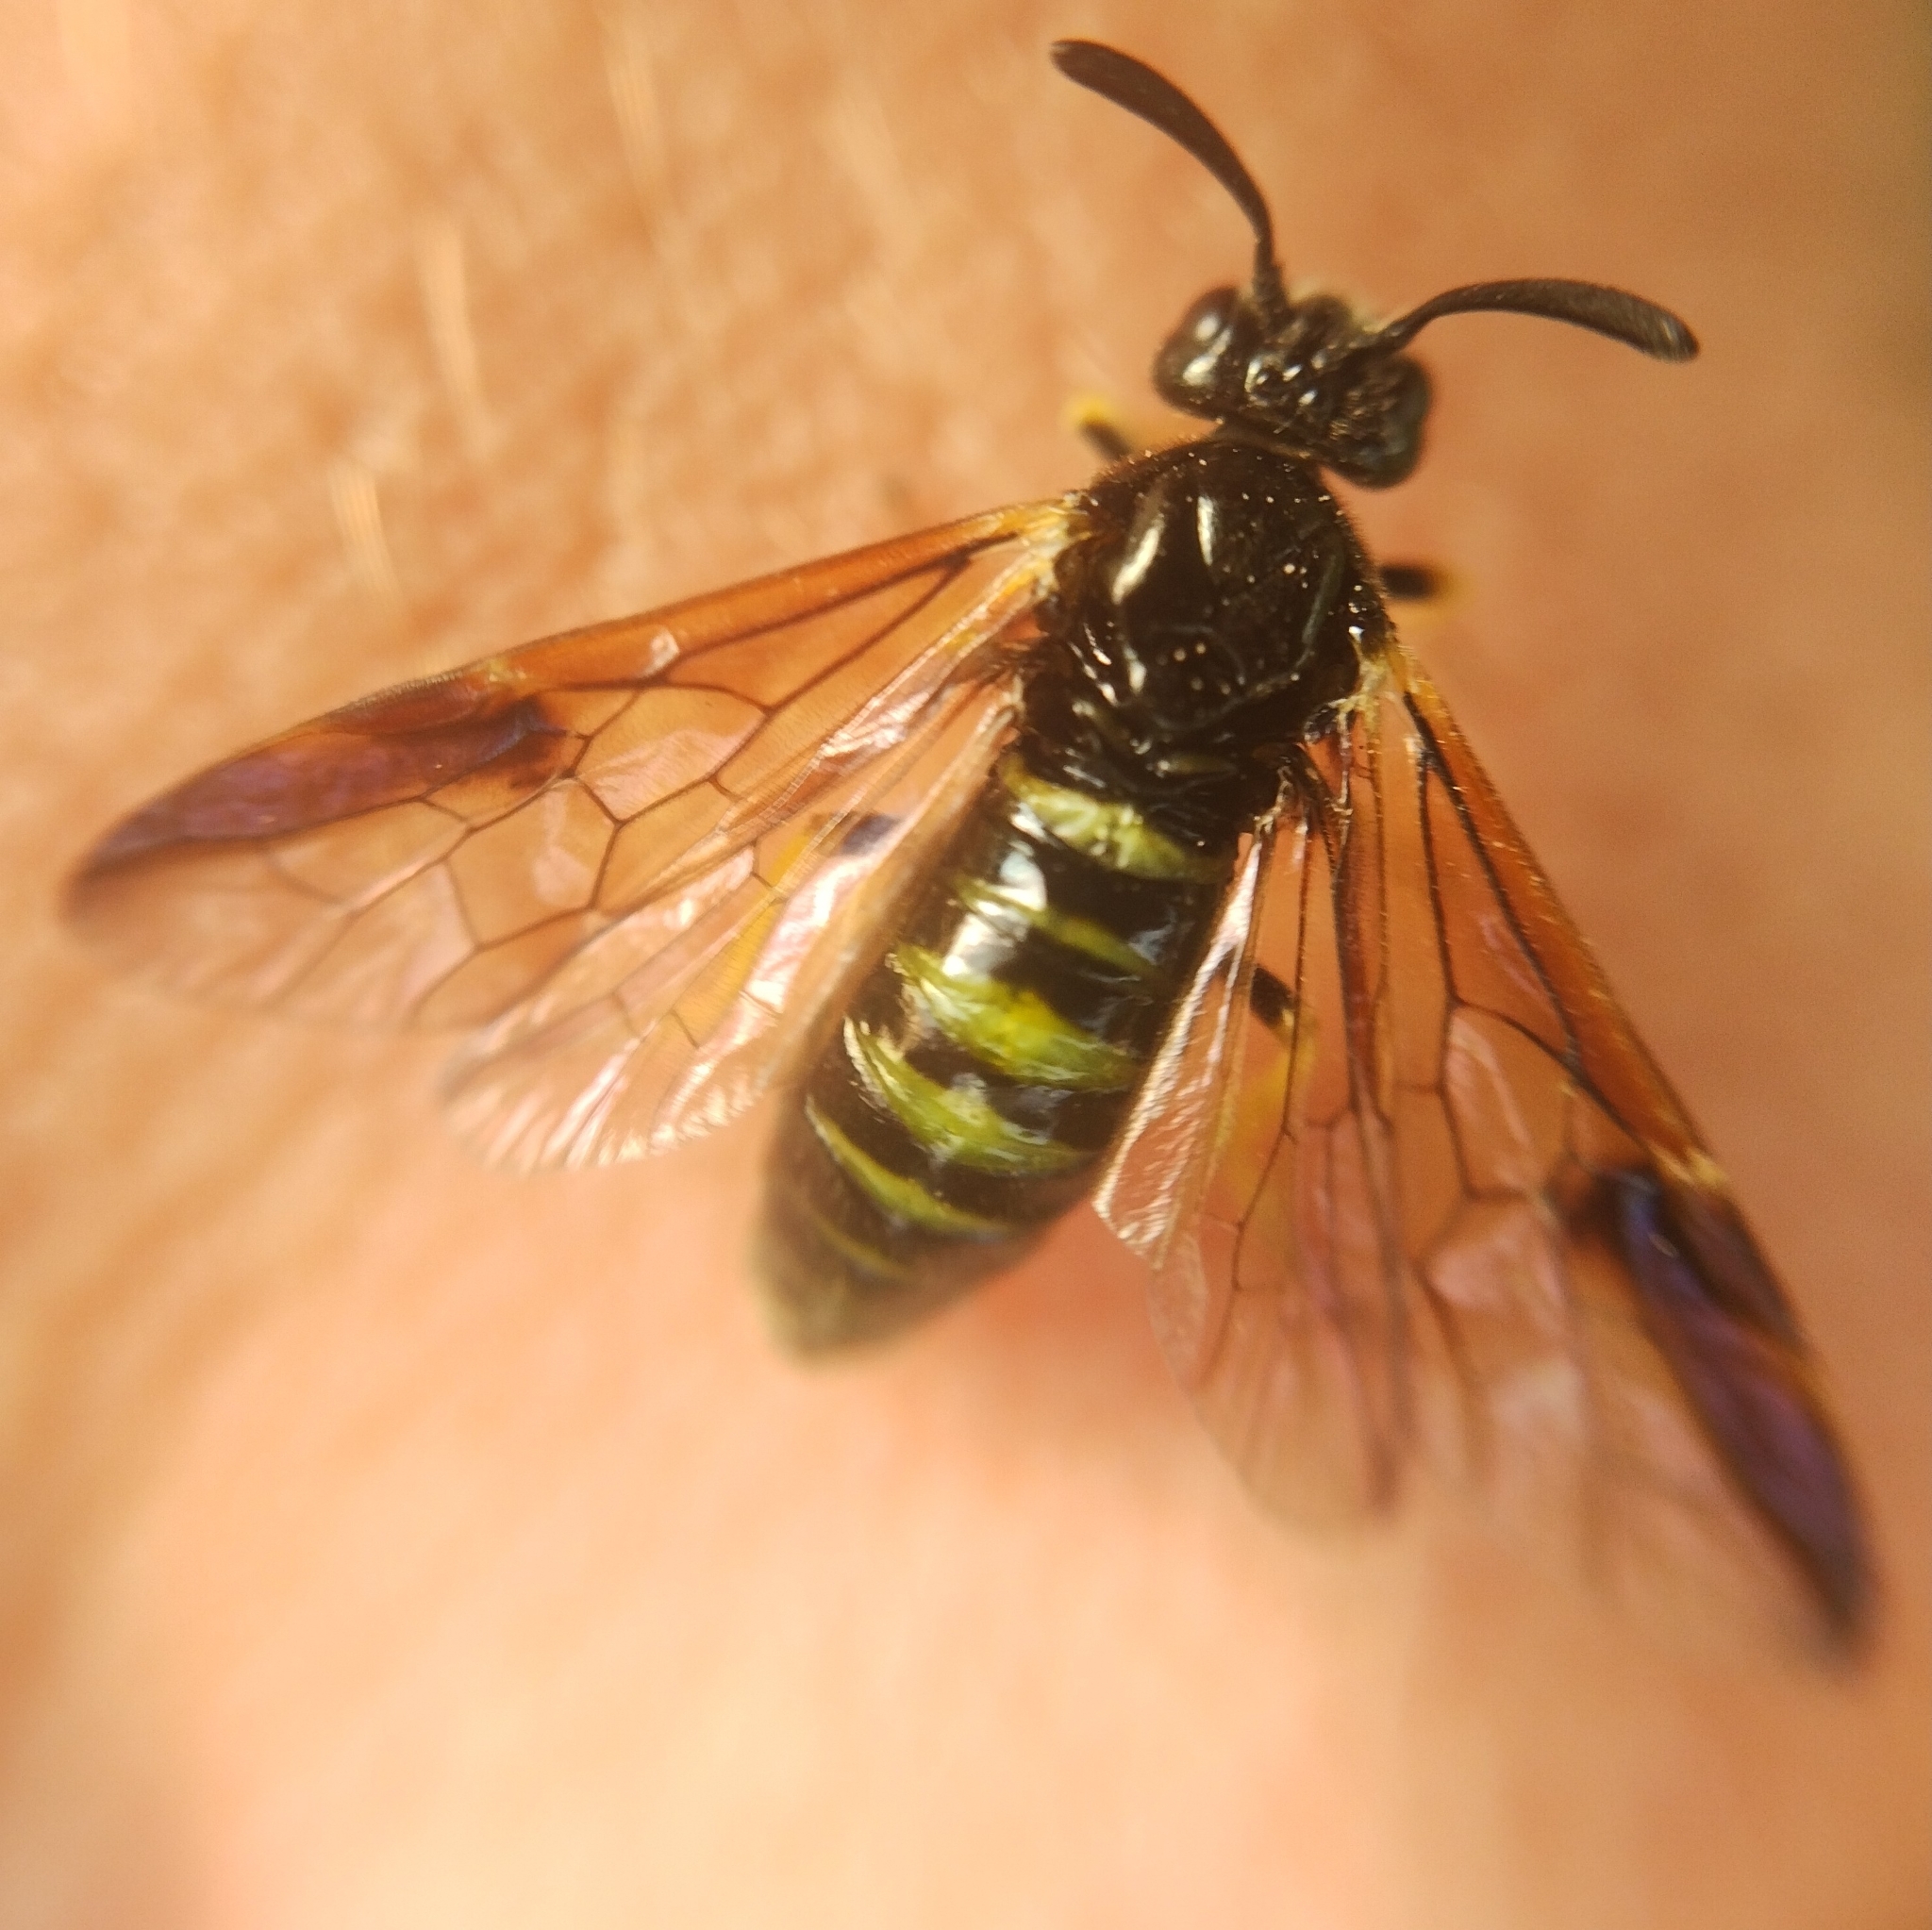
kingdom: Animalia
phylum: Arthropoda
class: Insecta
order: Hymenoptera
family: Argidae
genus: Arge
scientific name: Arge rustica
